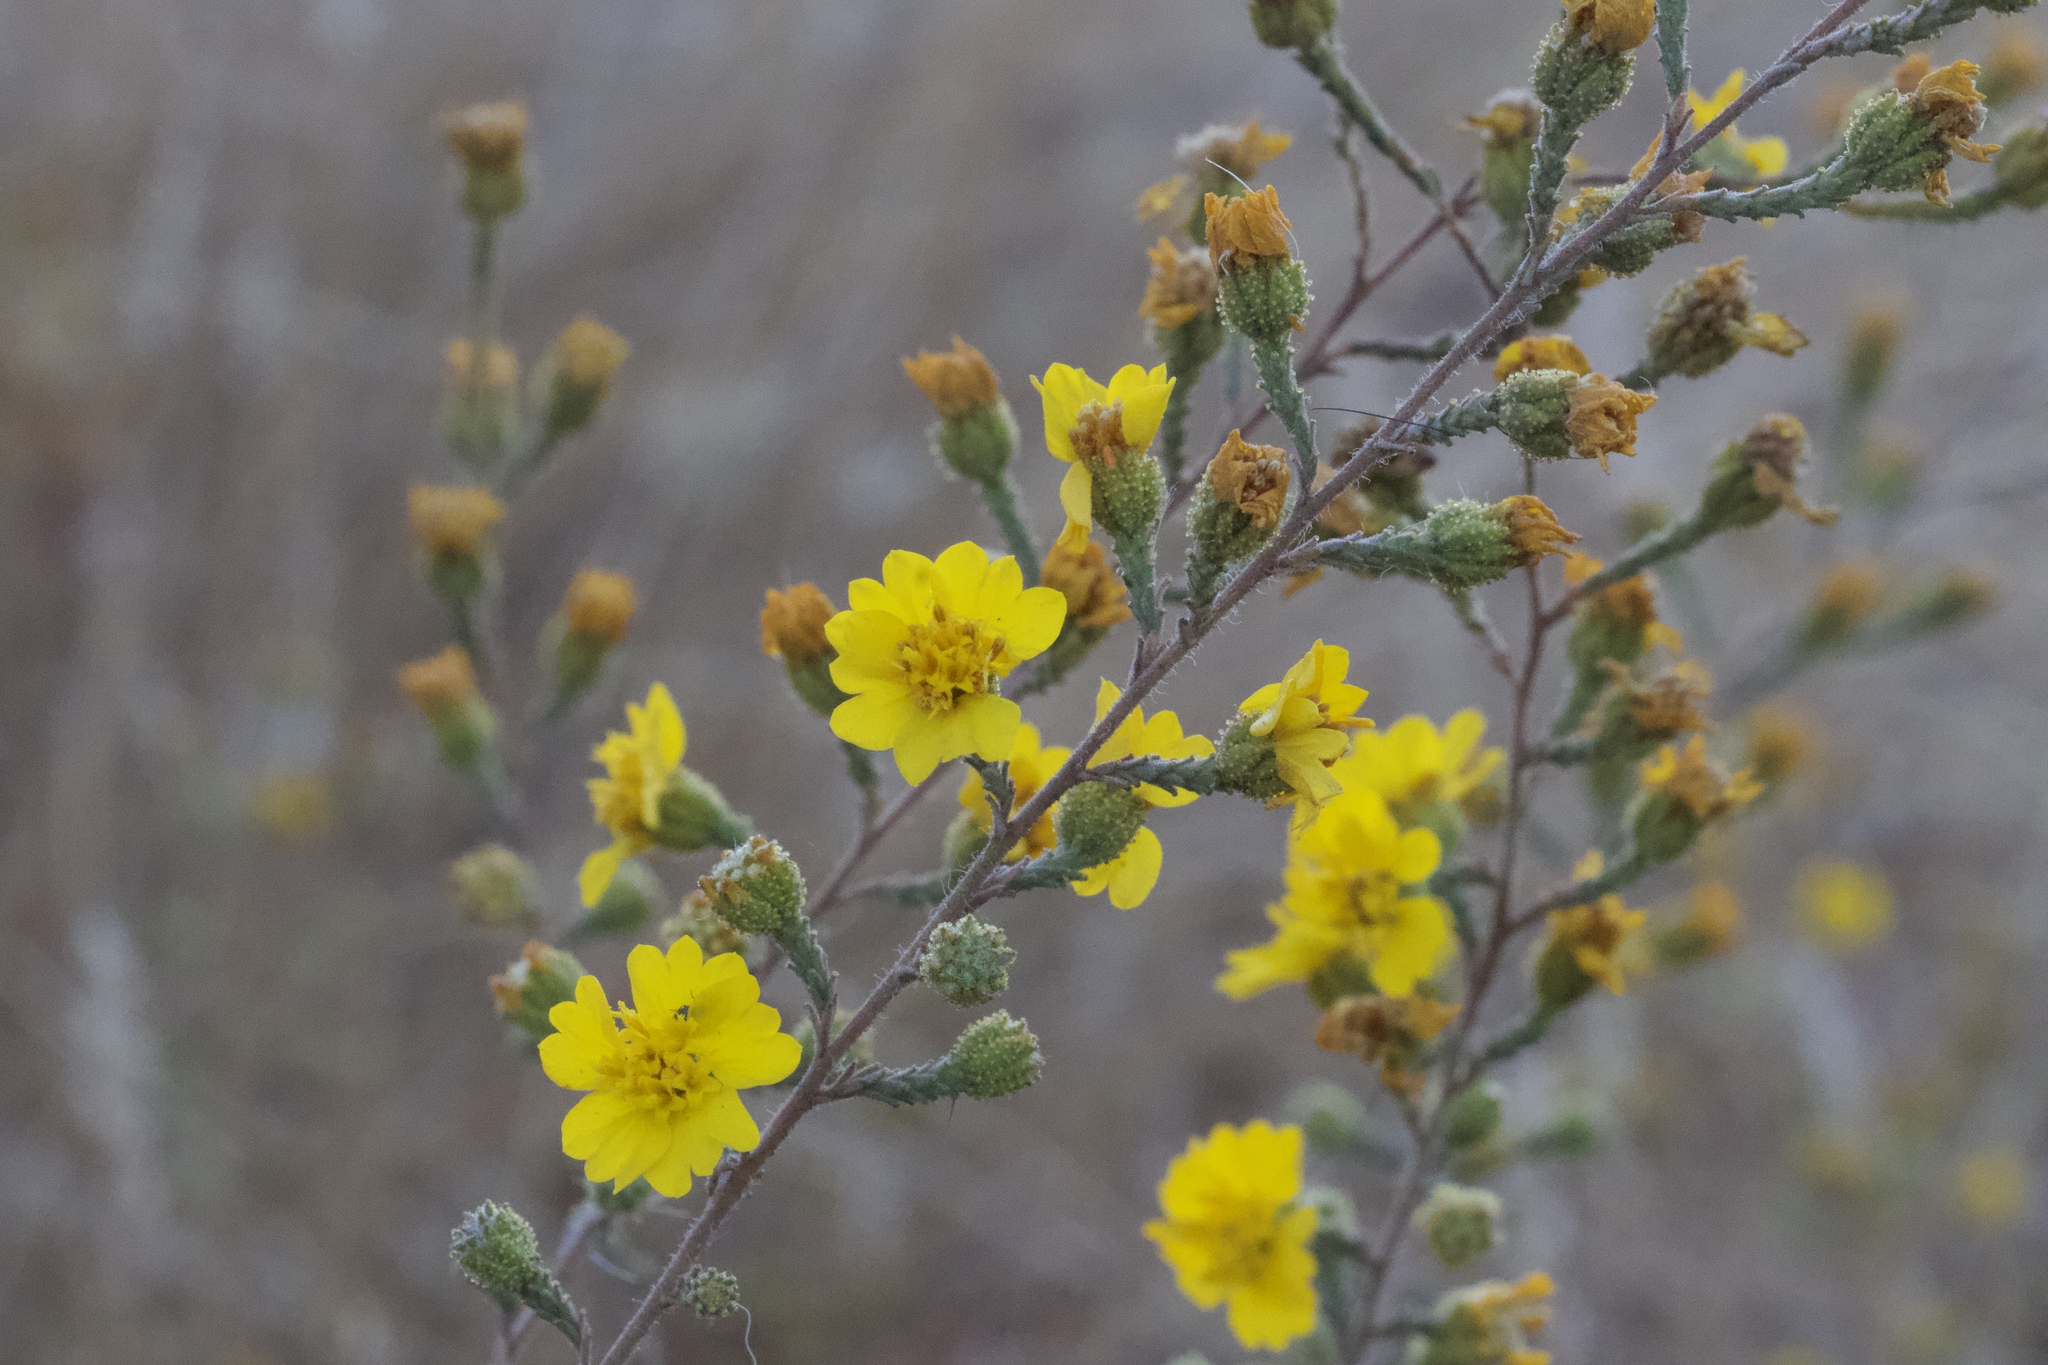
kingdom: Plantae
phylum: Tracheophyta
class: Magnoliopsida
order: Asterales
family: Asteraceae
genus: Holocarpha
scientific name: Holocarpha heermannii
